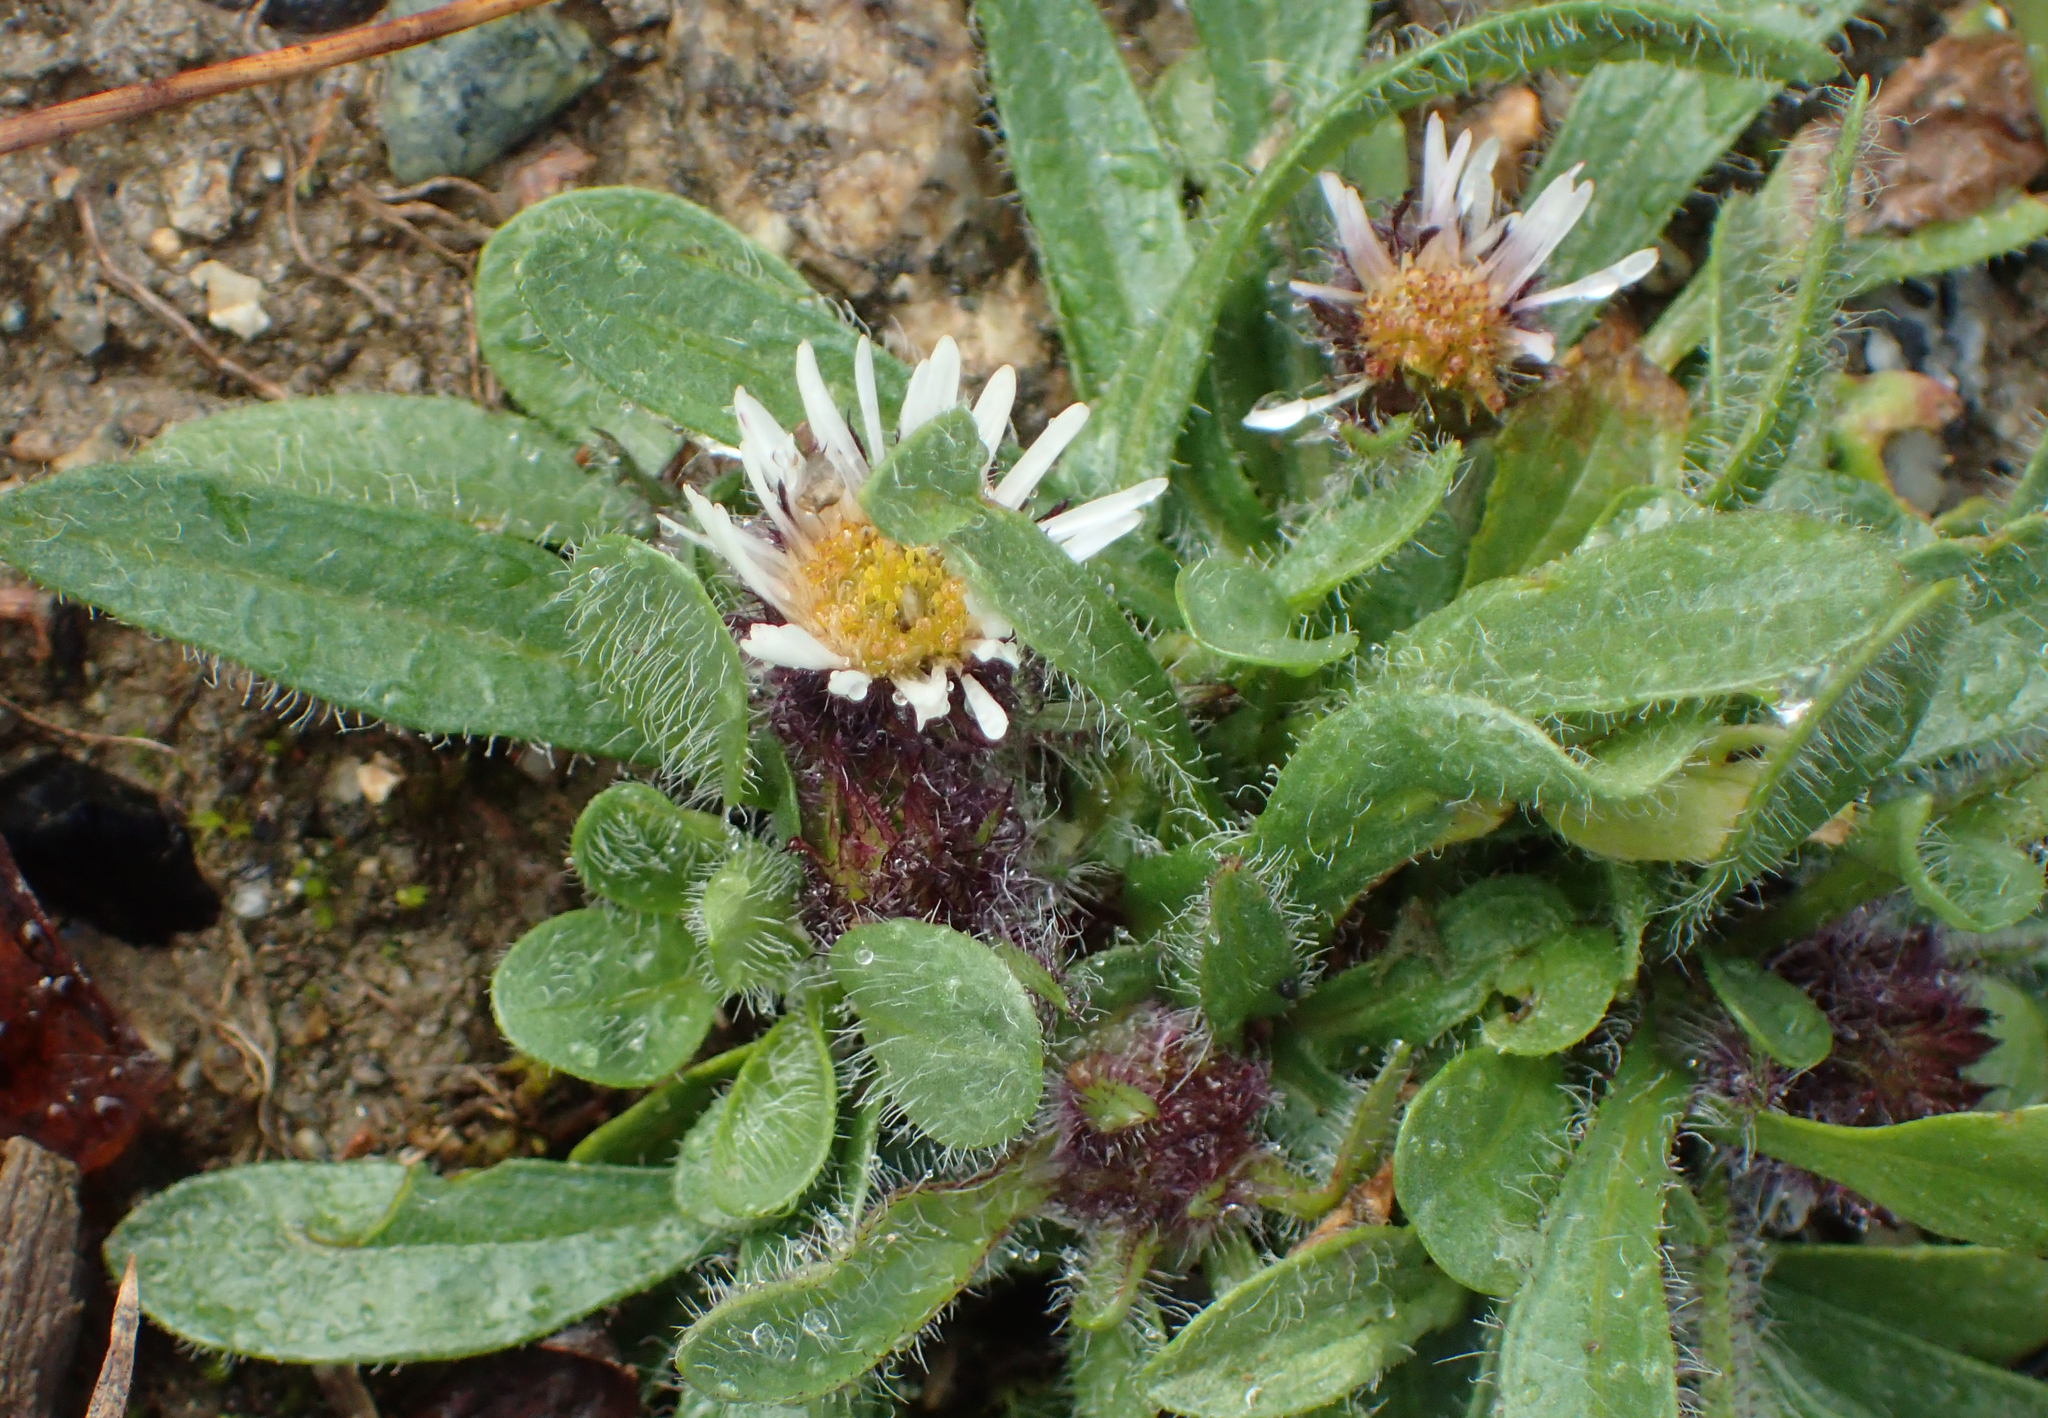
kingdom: Plantae
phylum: Tracheophyta
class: Magnoliopsida
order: Asterales
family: Asteraceae
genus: Erigeron
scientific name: Erigeron humilis
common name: Arctic-alpine fleabane
